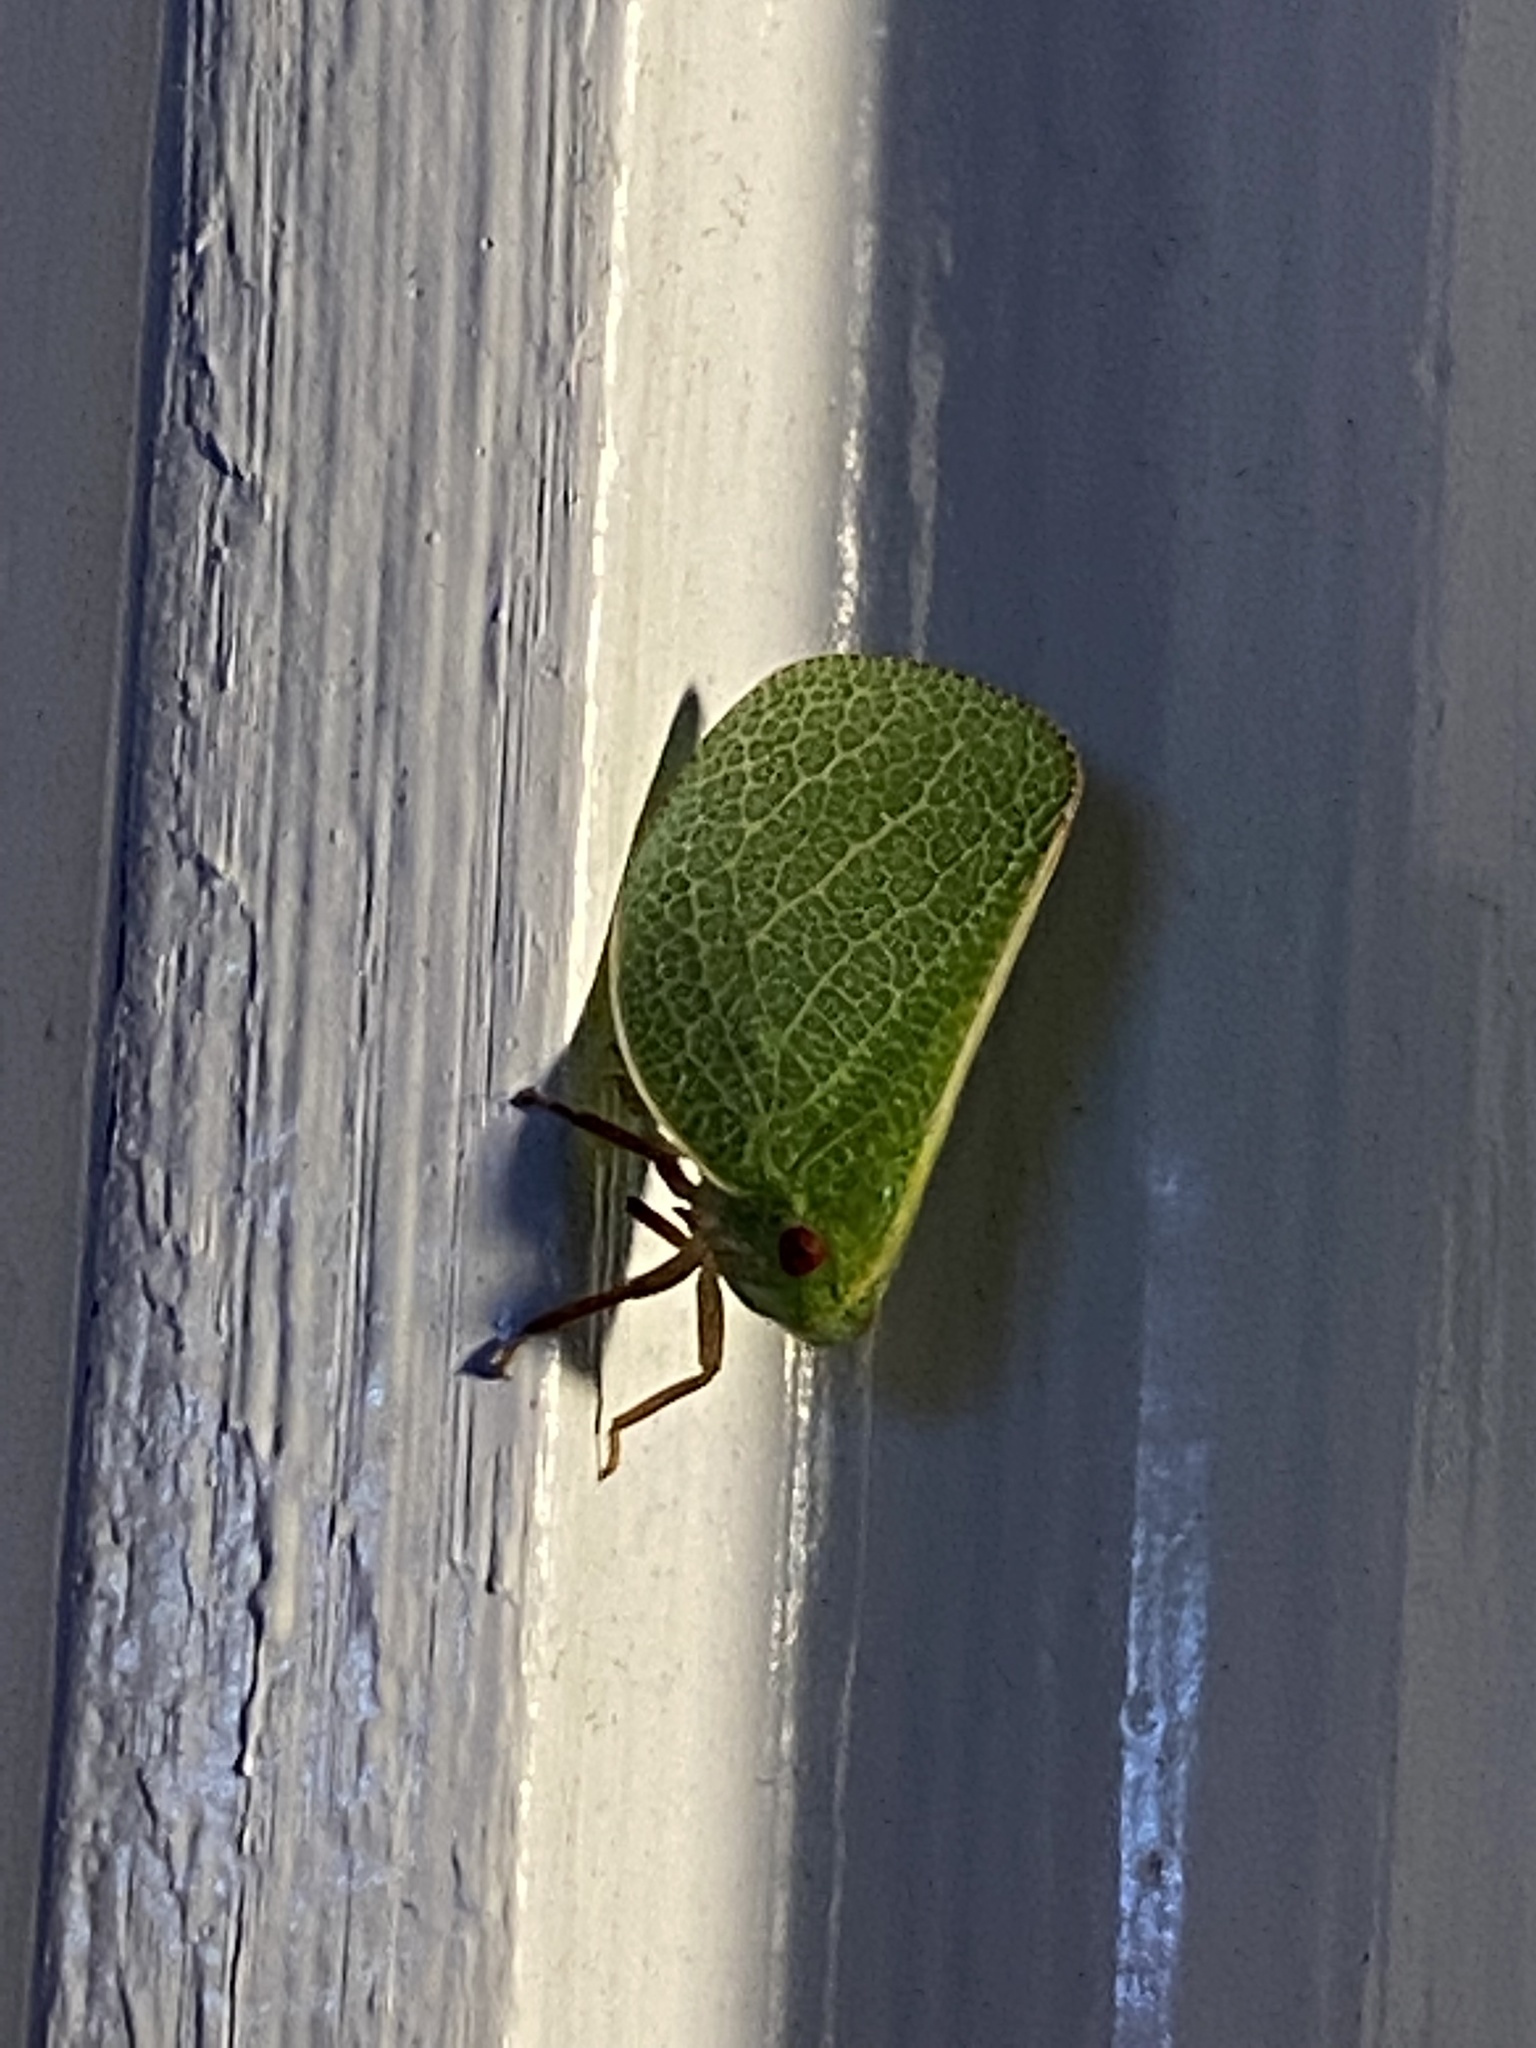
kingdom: Animalia
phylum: Arthropoda
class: Insecta
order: Hemiptera
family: Acanaloniidae
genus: Acanalonia
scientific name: Acanalonia servillei
